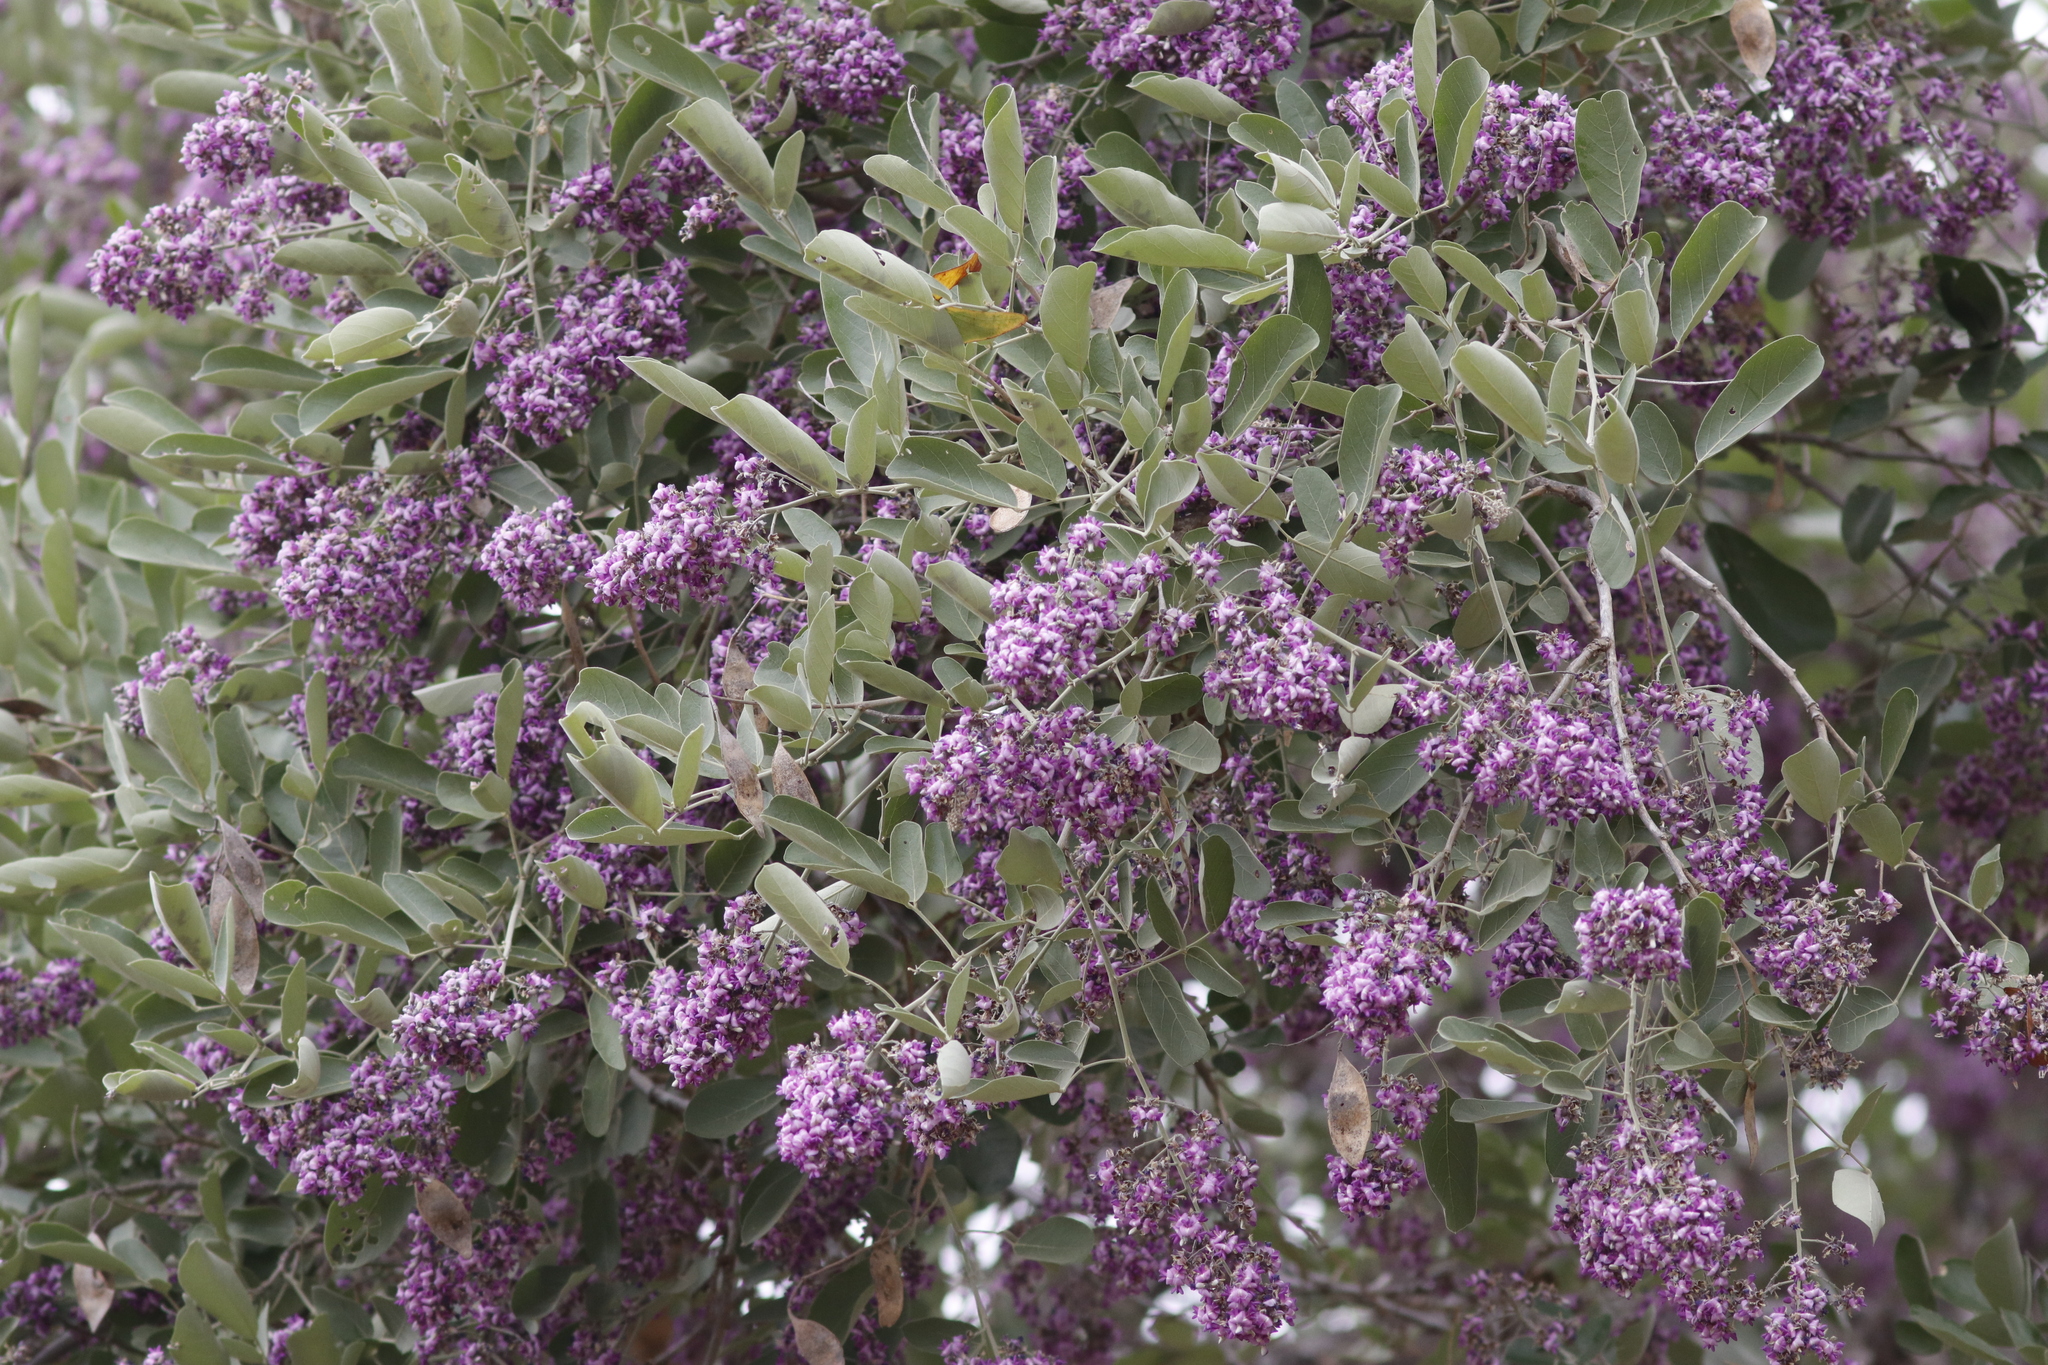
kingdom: Plantae
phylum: Tracheophyta
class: Magnoliopsida
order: Fabales
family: Fabaceae
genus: Philenoptera
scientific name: Philenoptera violacea
